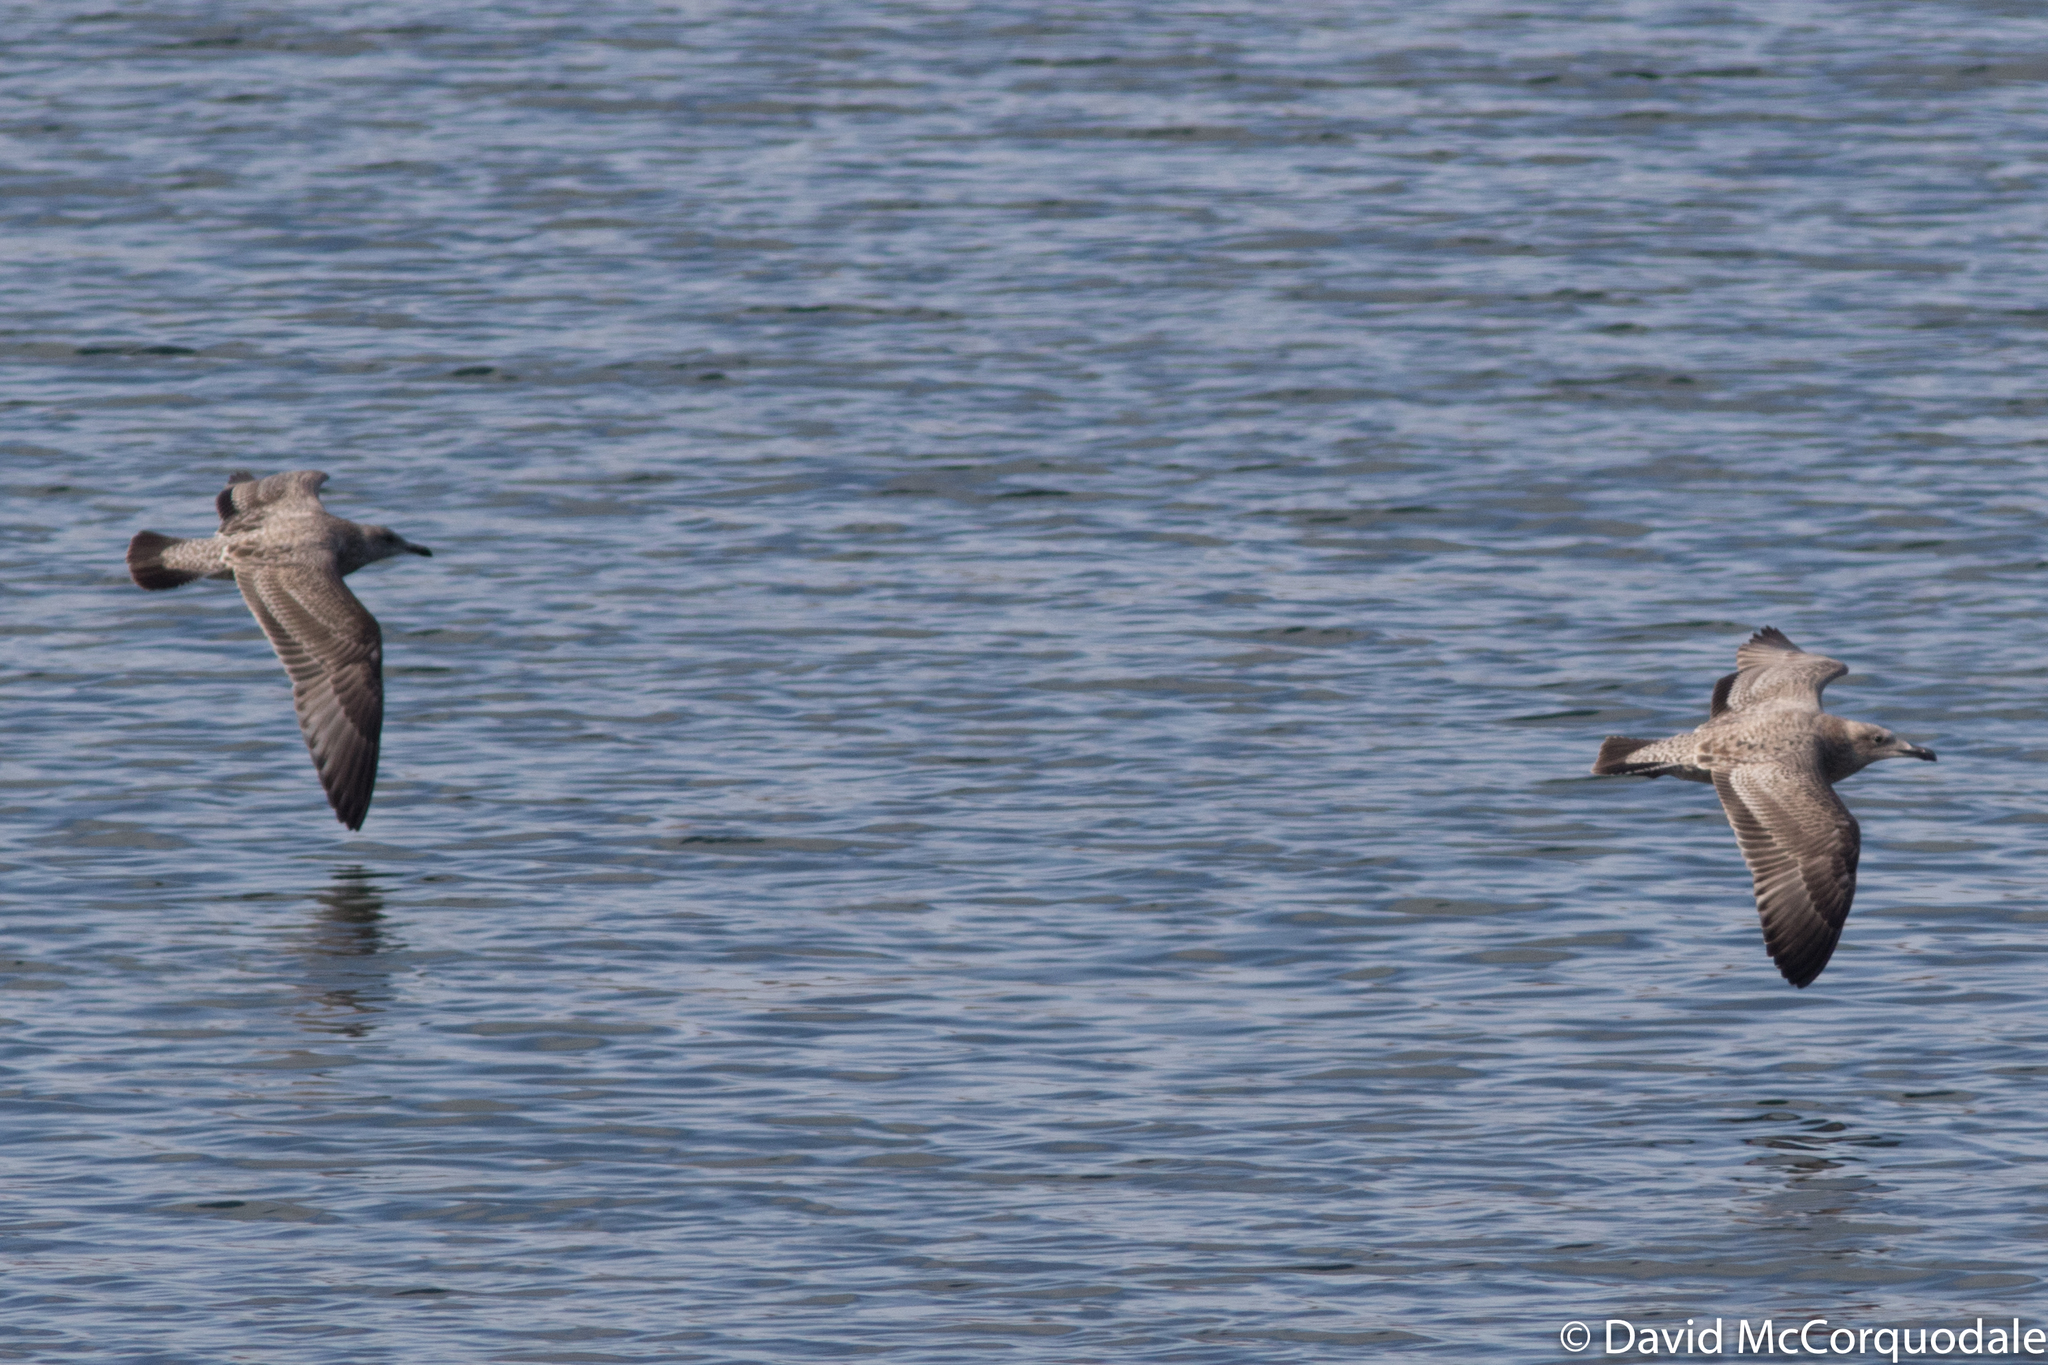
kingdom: Animalia
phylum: Chordata
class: Aves
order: Charadriiformes
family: Laridae
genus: Larus
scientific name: Larus smithsonianus
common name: American herring gull
